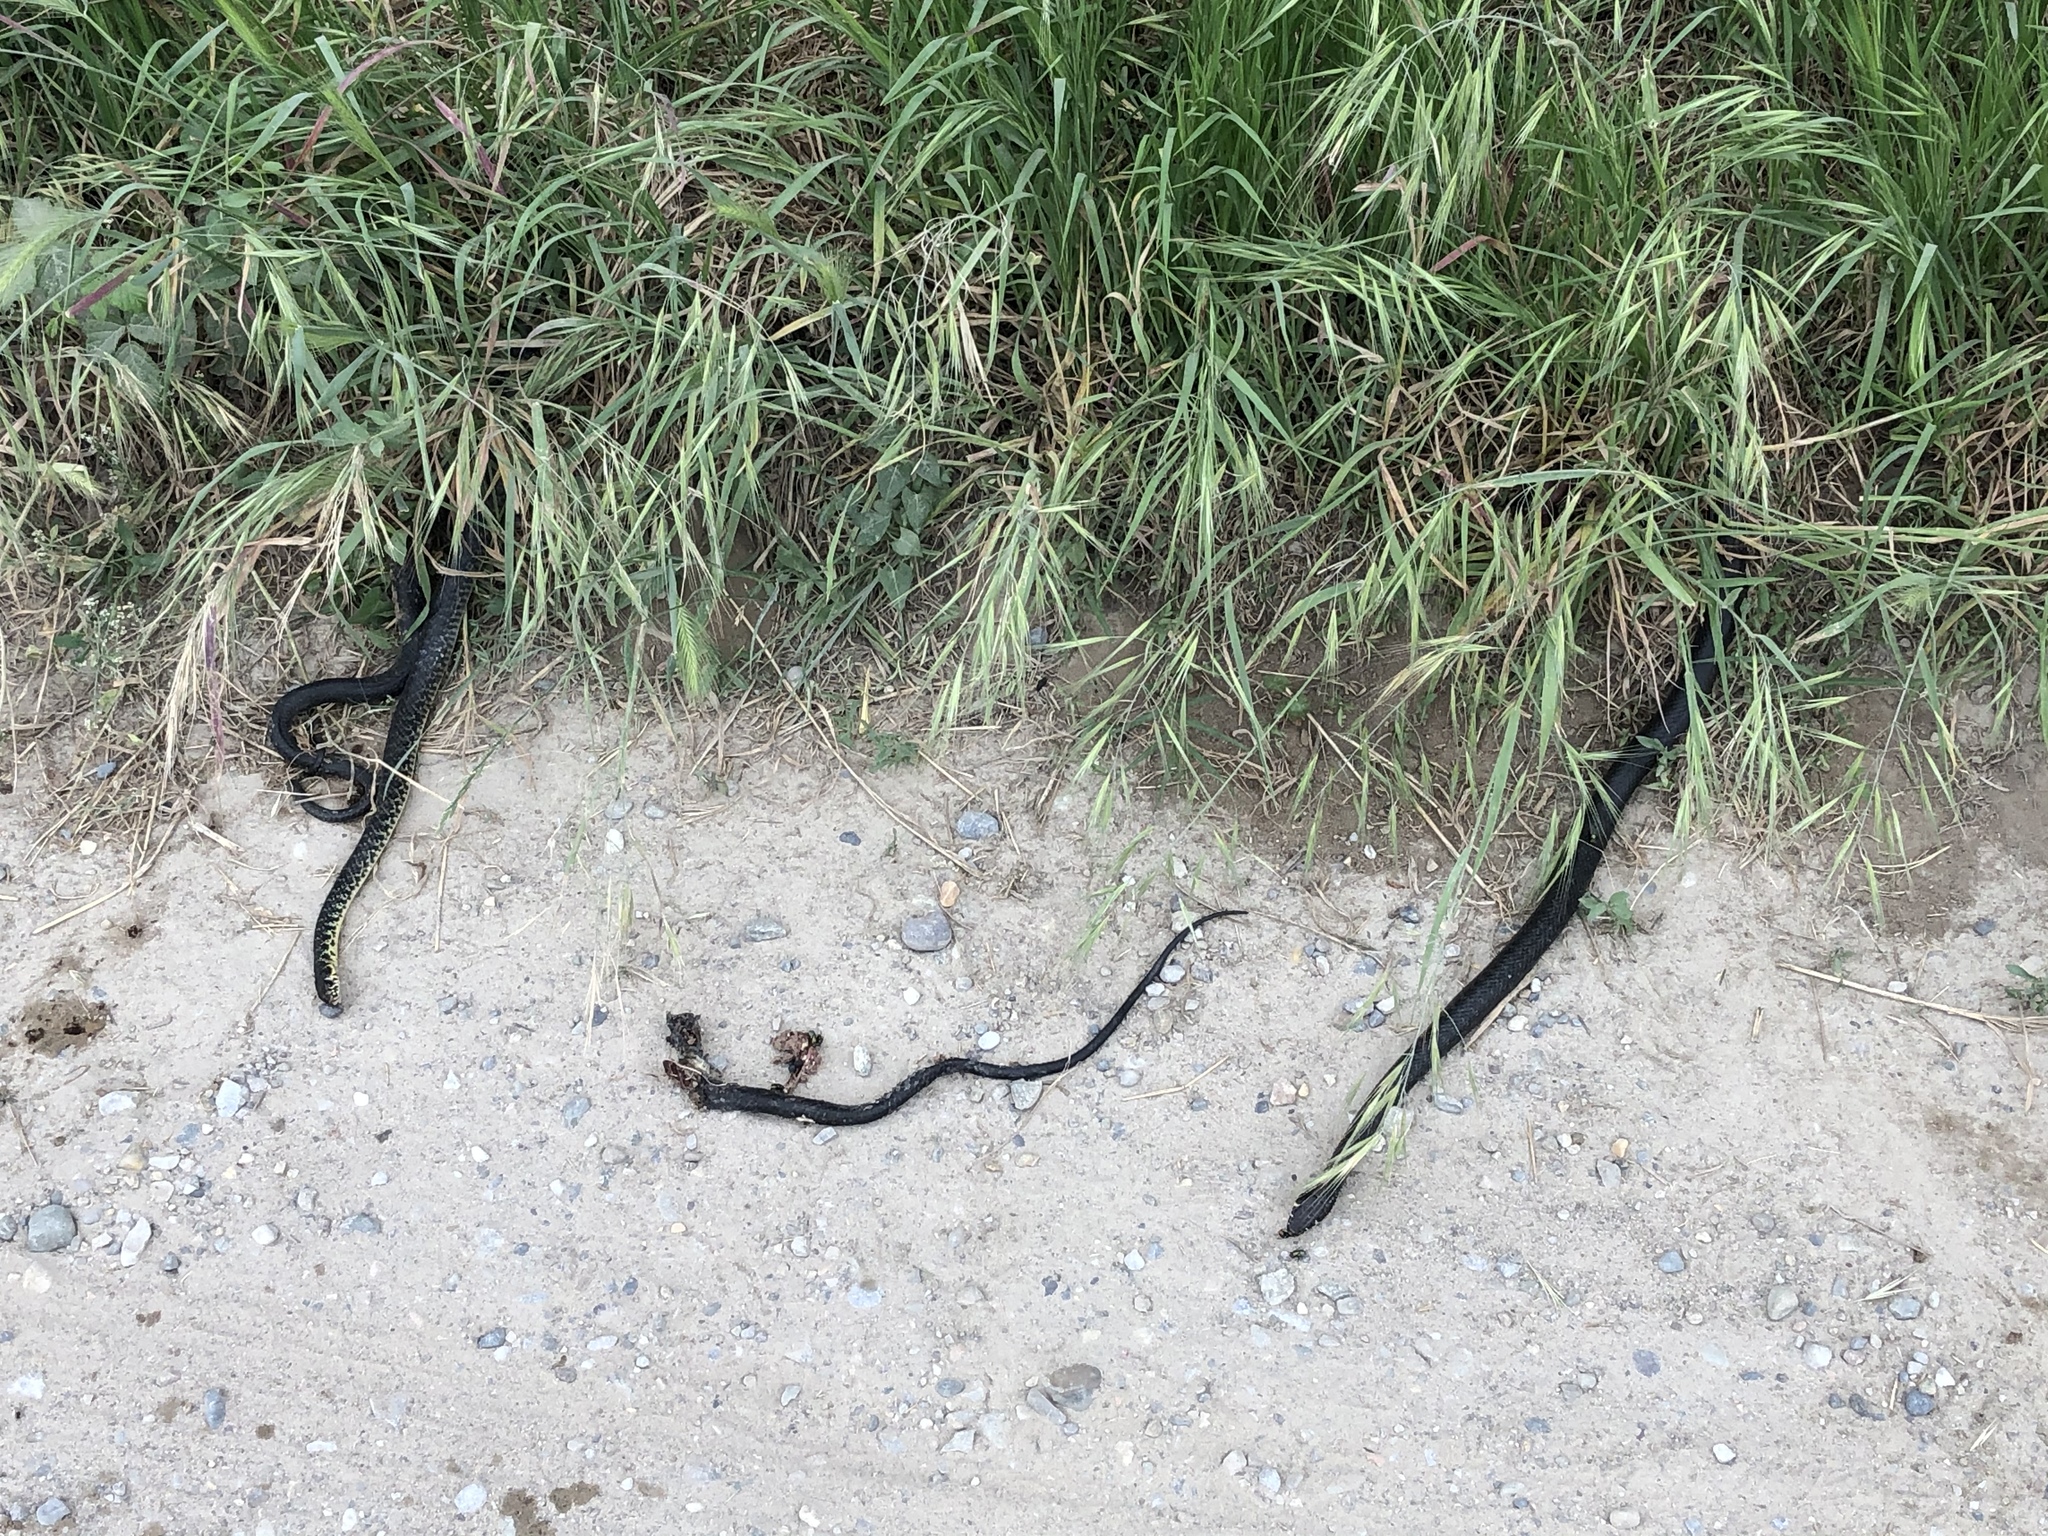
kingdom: Animalia
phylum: Chordata
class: Squamata
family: Colubridae
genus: Hierophis
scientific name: Hierophis viridiflavus
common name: Green whip snake
